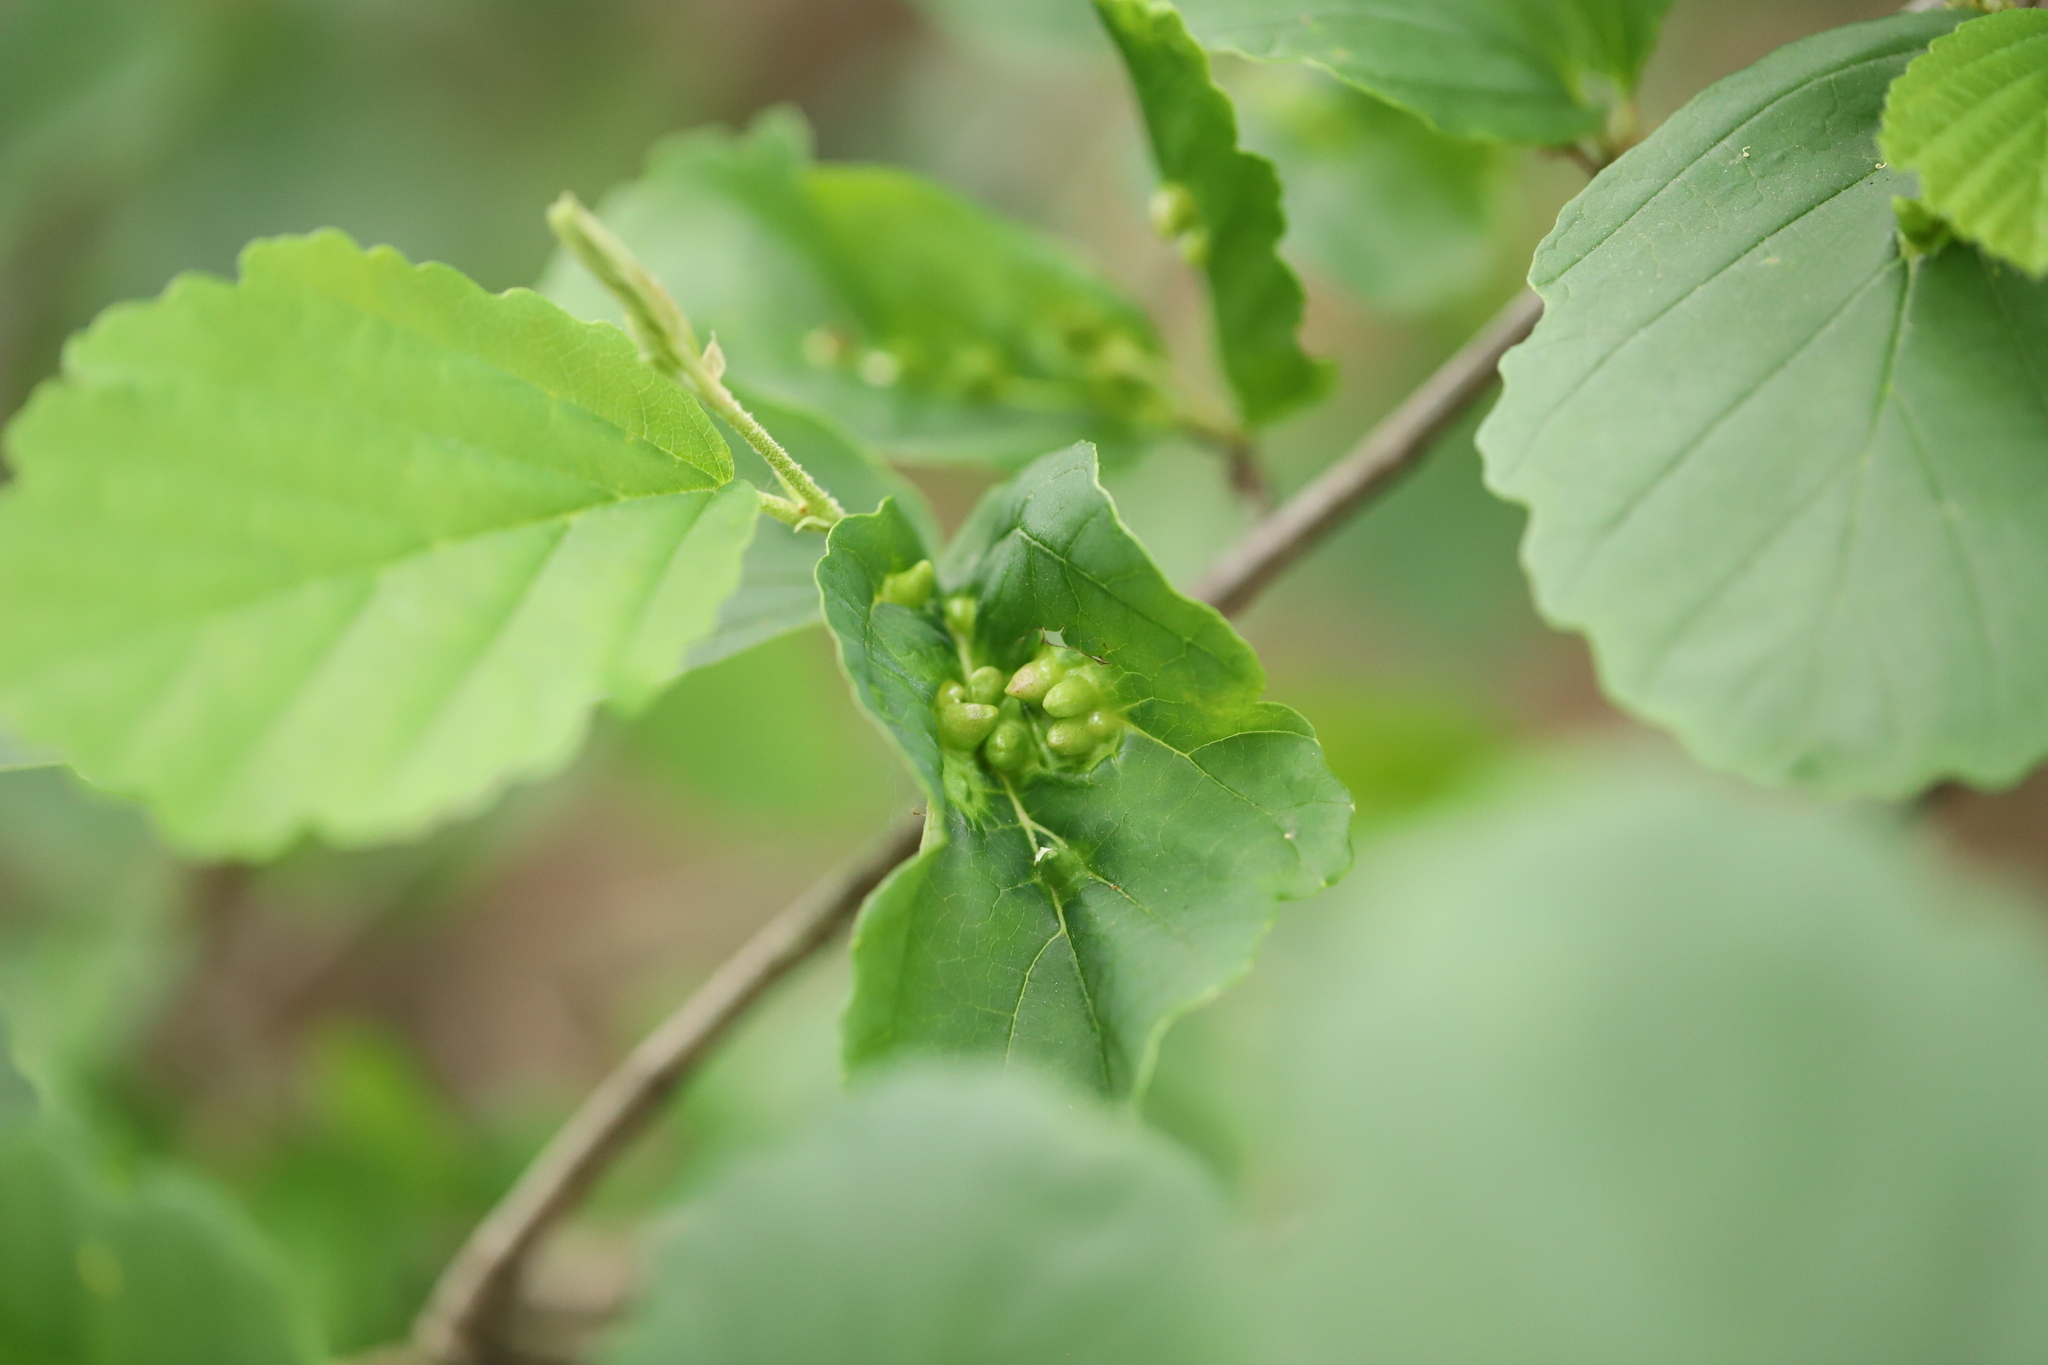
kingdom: Animalia
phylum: Arthropoda
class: Insecta
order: Hemiptera
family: Aphididae
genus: Hormaphis
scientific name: Hormaphis hamamelidis
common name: Witch-hazel cone gall aphid
